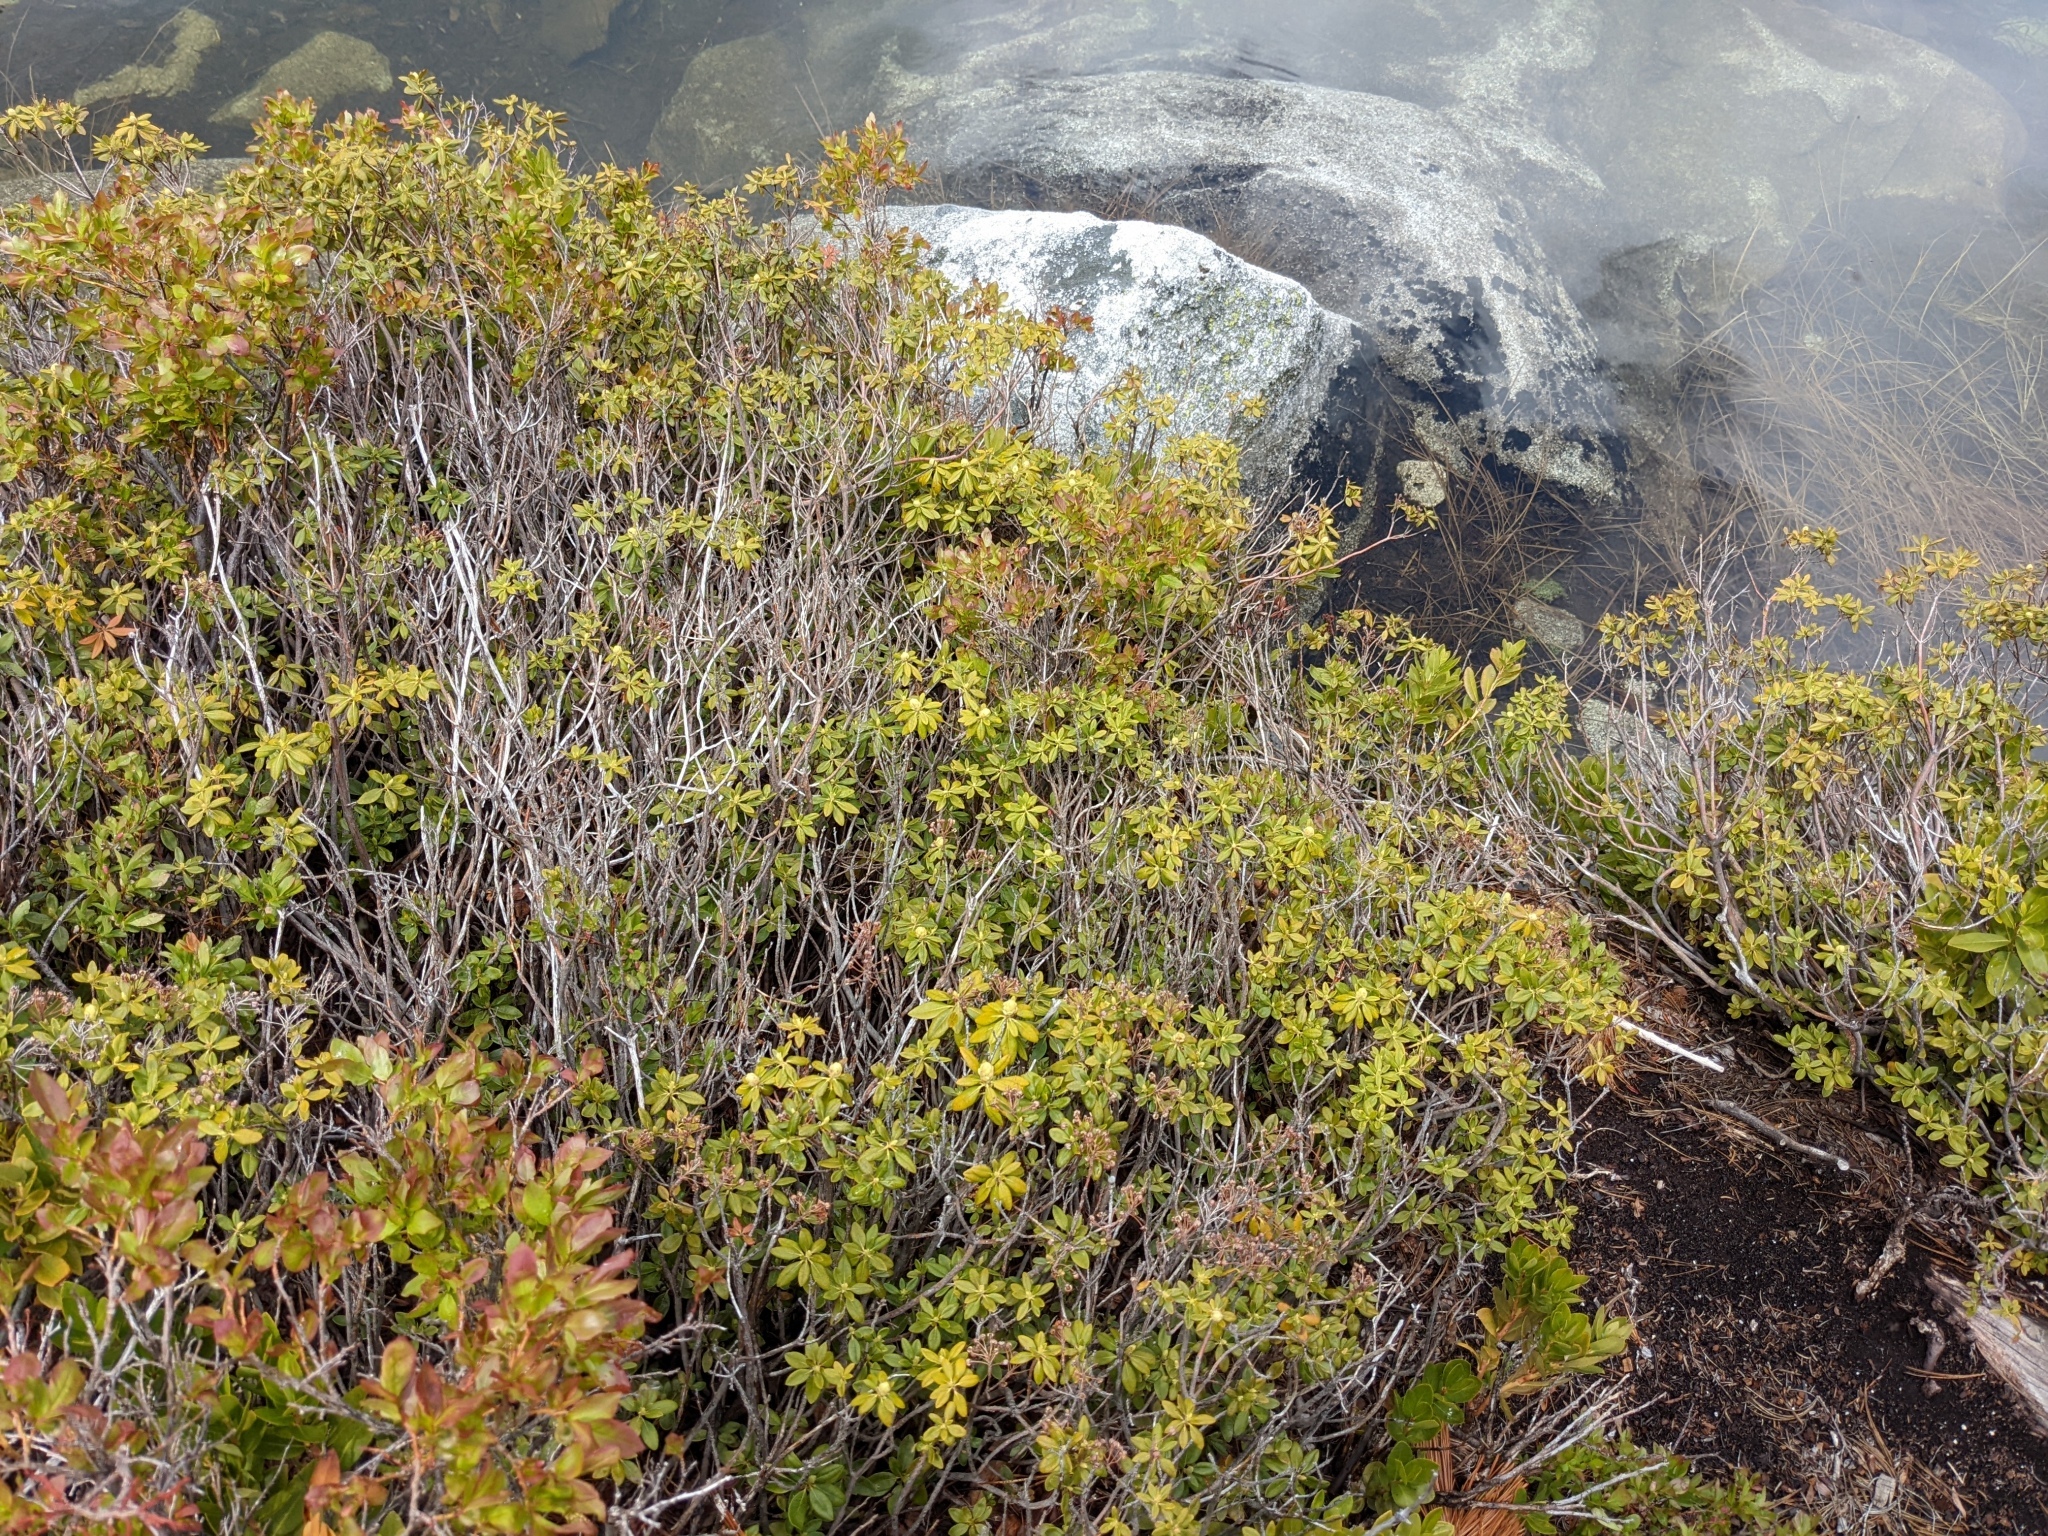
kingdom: Plantae
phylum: Tracheophyta
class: Magnoliopsida
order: Ericales
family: Ericaceae
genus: Rhododendron
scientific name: Rhododendron columbianum
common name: Western labrador tea
